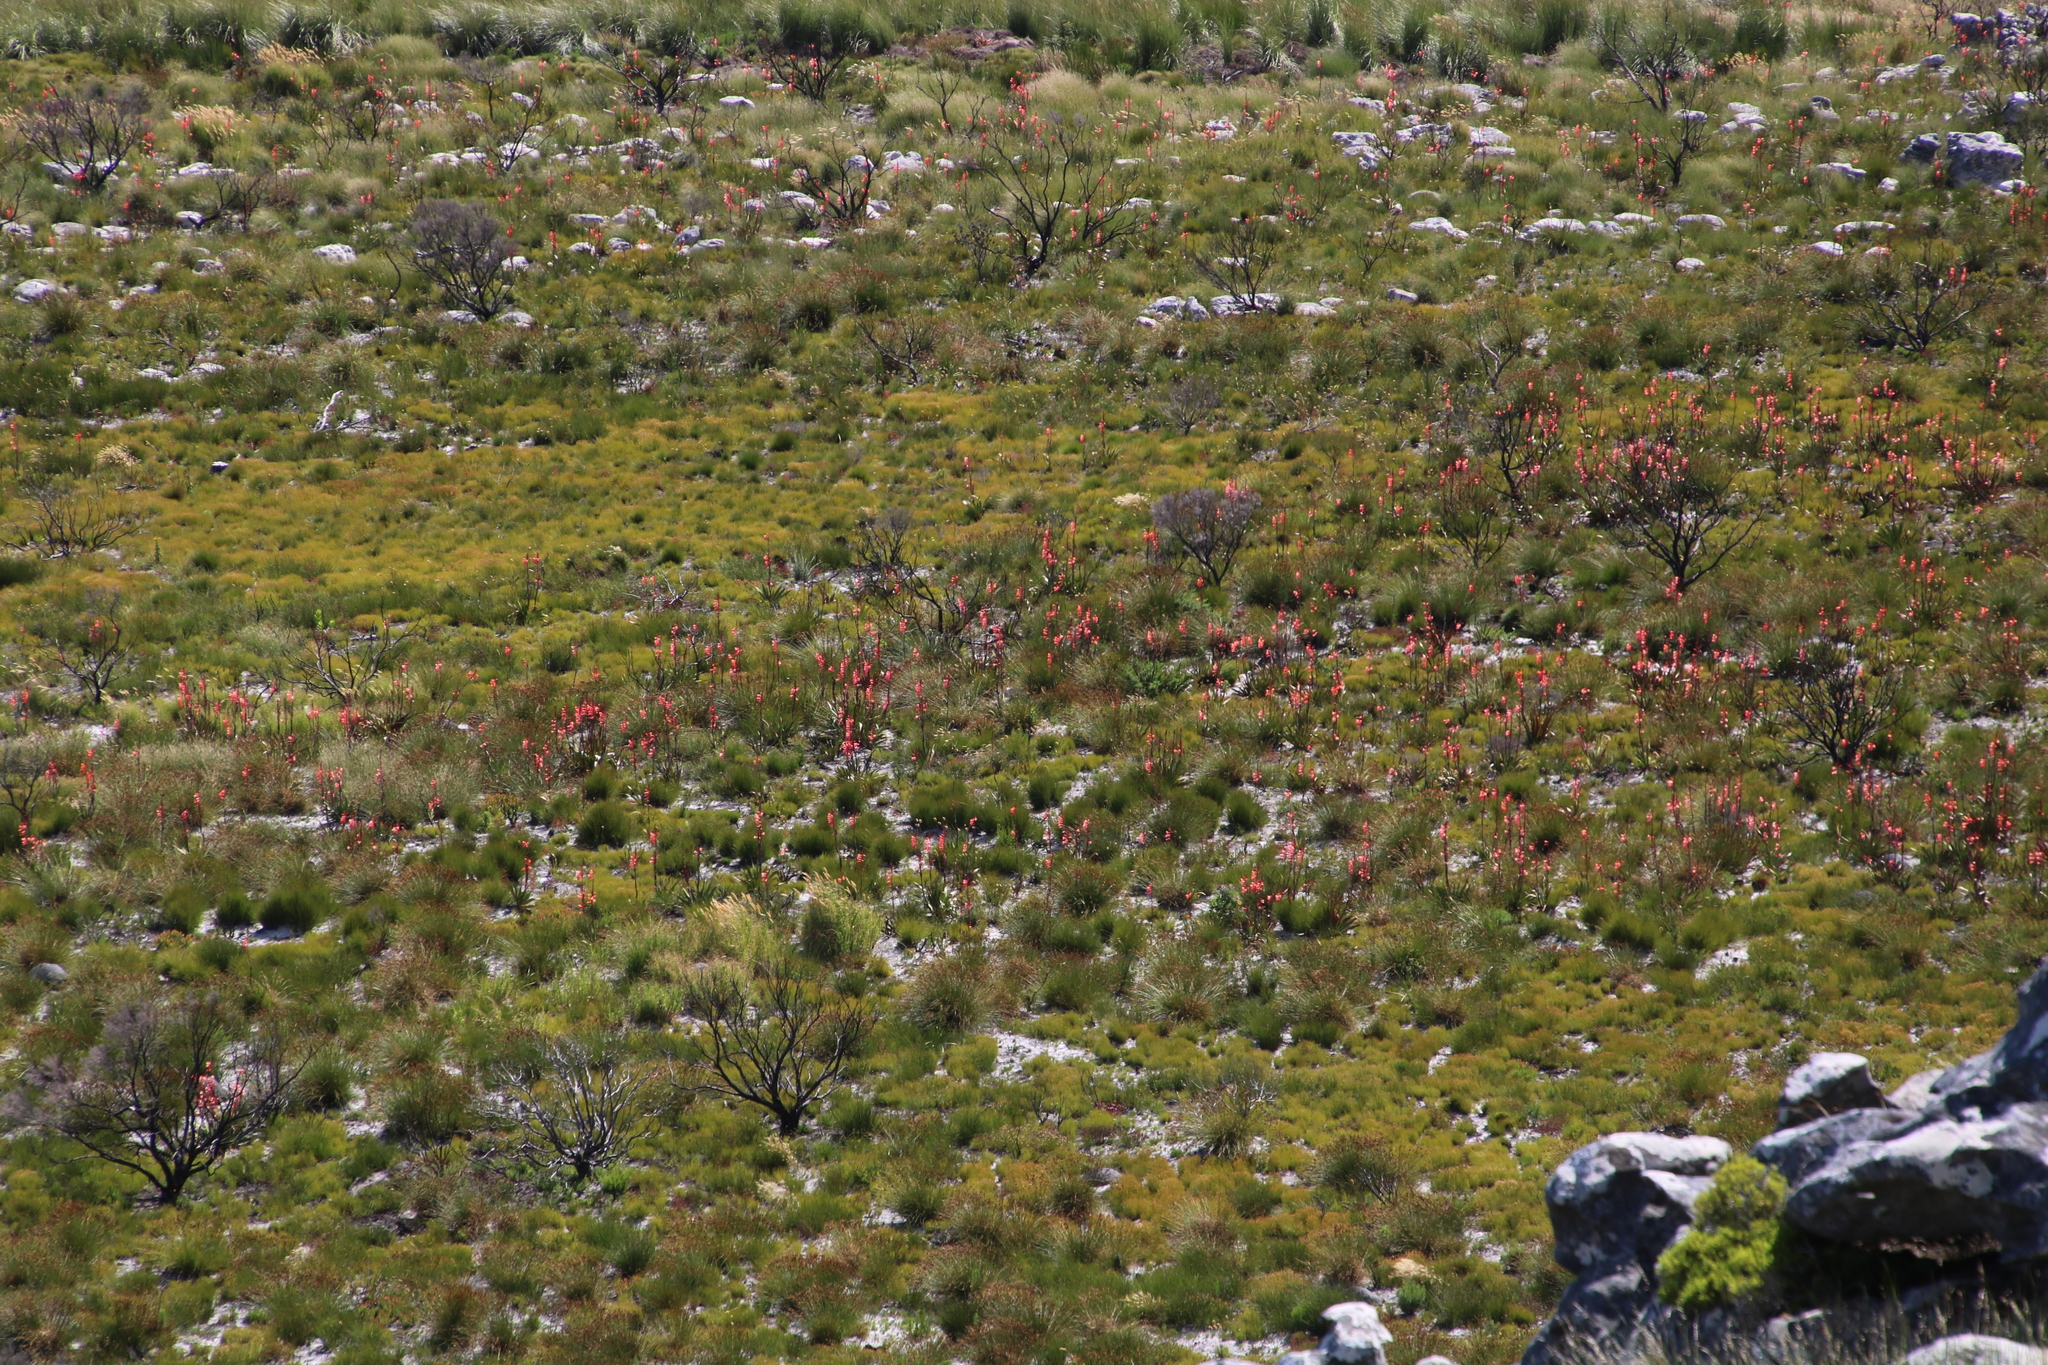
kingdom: Plantae
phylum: Tracheophyta
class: Liliopsida
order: Asparagales
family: Iridaceae
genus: Watsonia
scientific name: Watsonia tabularis
